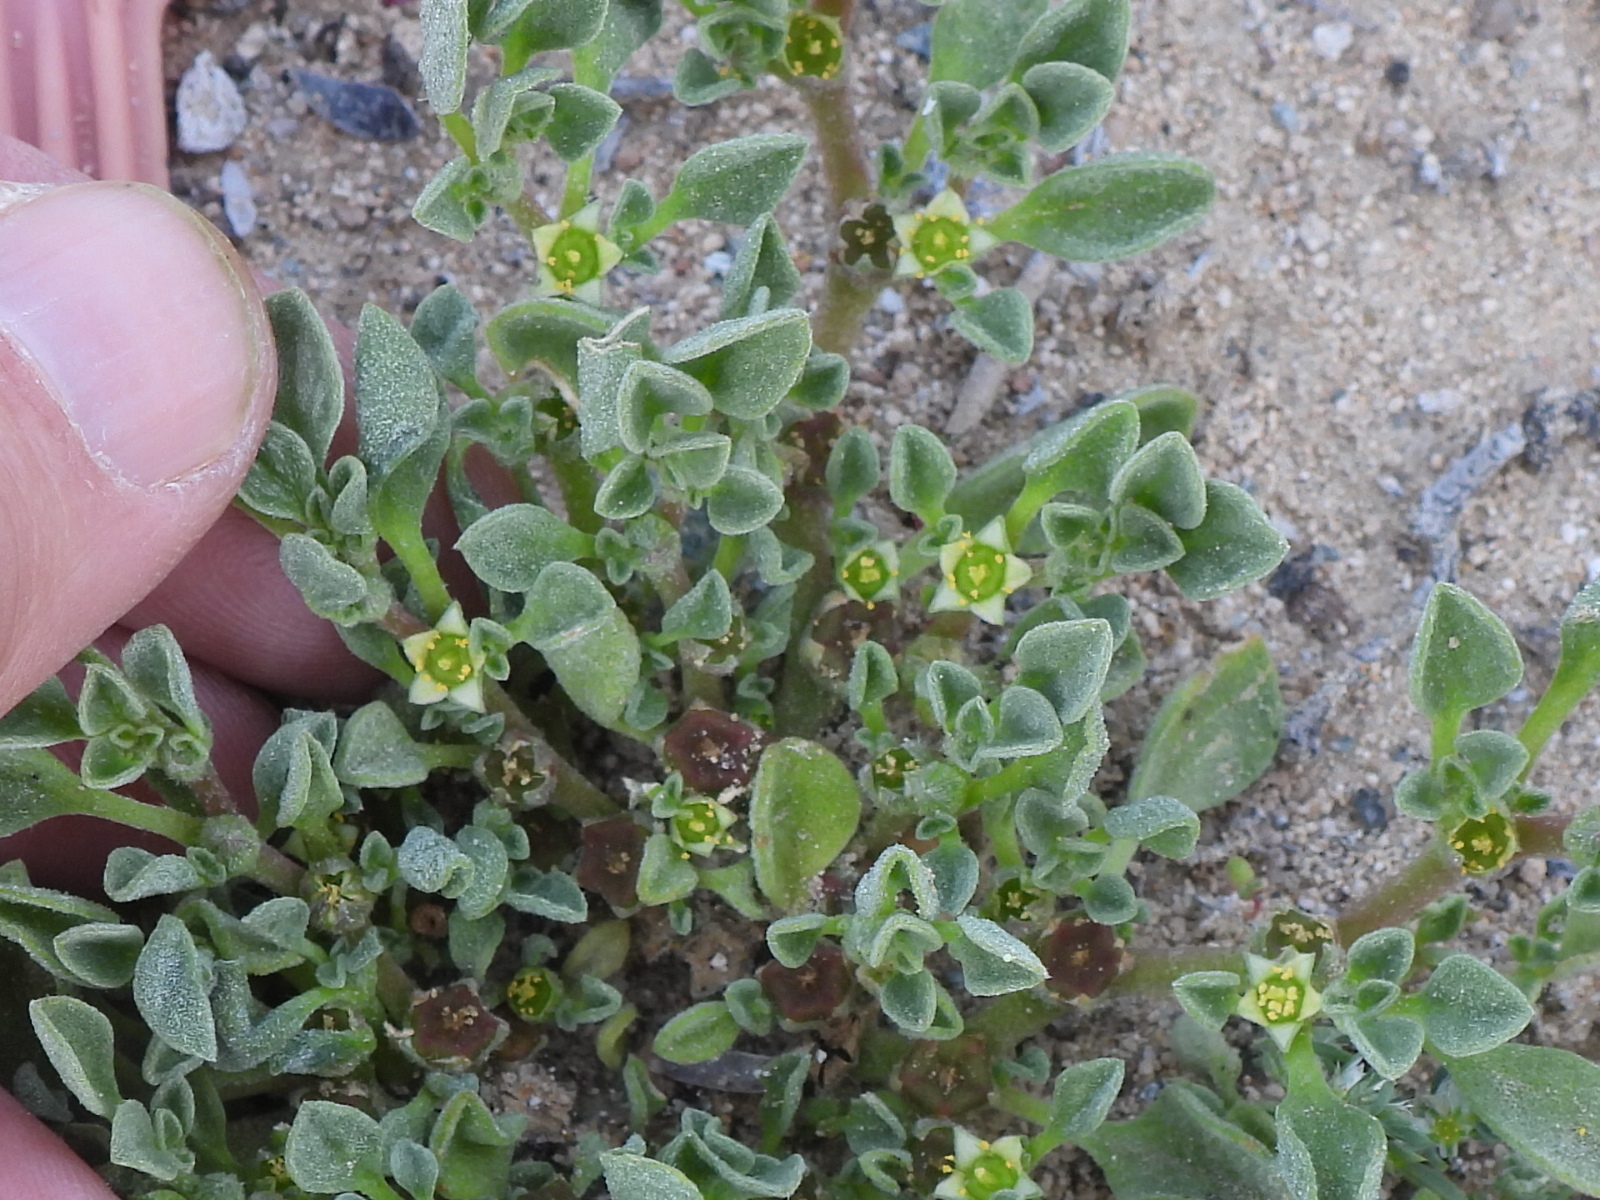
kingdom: Plantae
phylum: Tracheophyta
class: Magnoliopsida
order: Caryophyllales
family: Aizoaceae
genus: Aizoon
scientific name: Aizoon canariense
